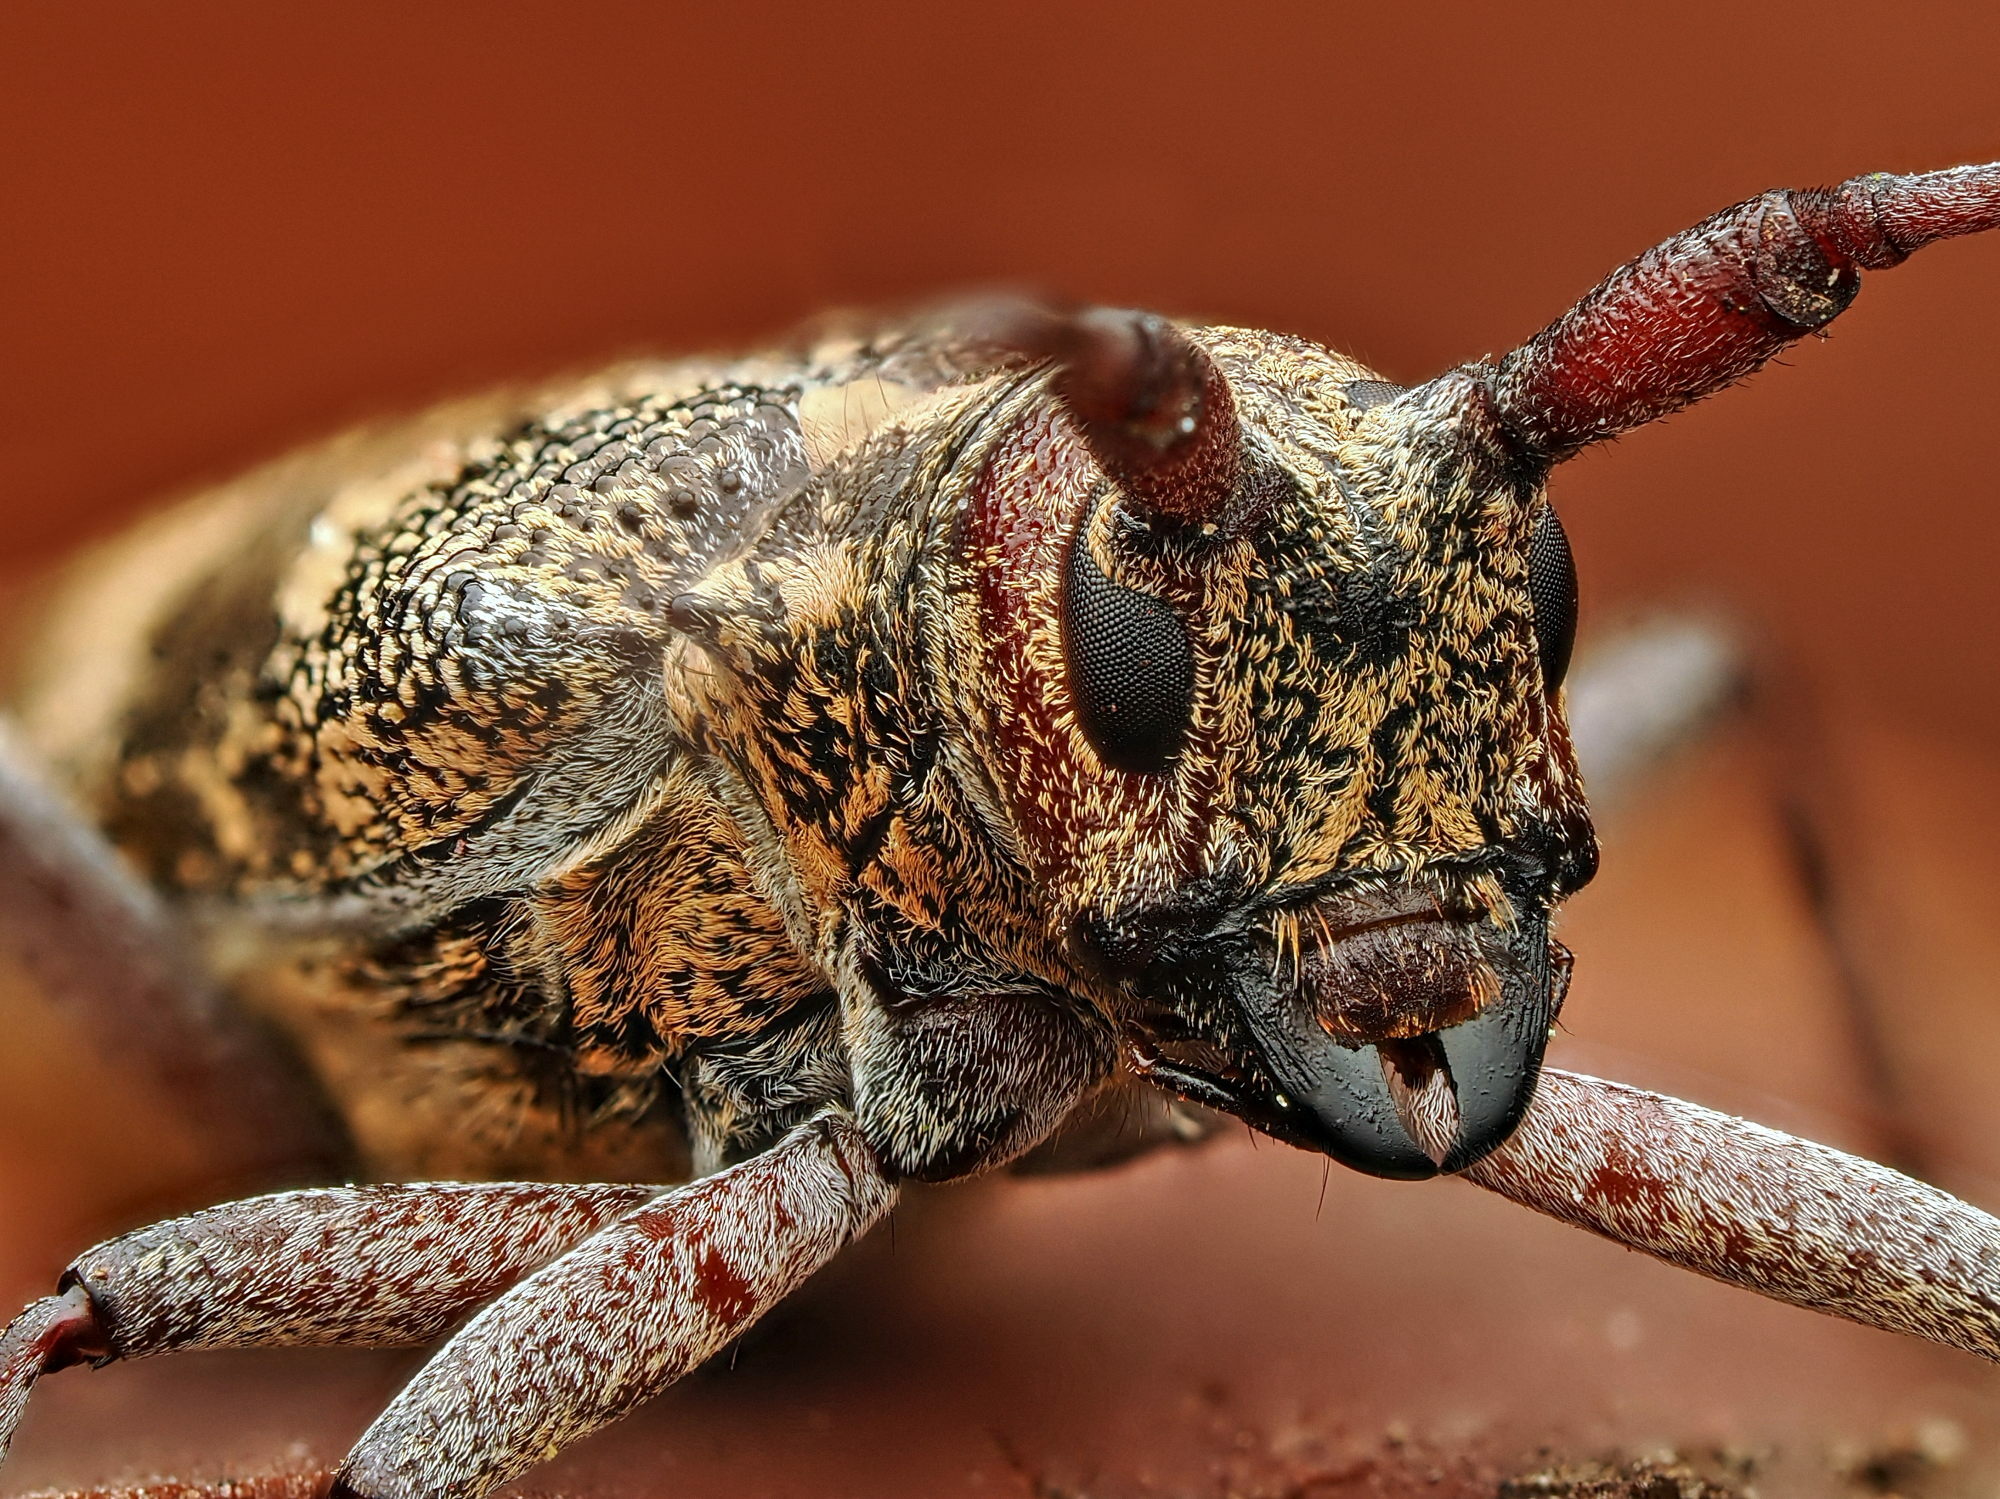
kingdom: Animalia
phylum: Arthropoda
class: Insecta
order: Coleoptera
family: Cerambycidae
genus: Monochamus
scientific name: Monochamus galloprovincialis
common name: Pine sawyer
